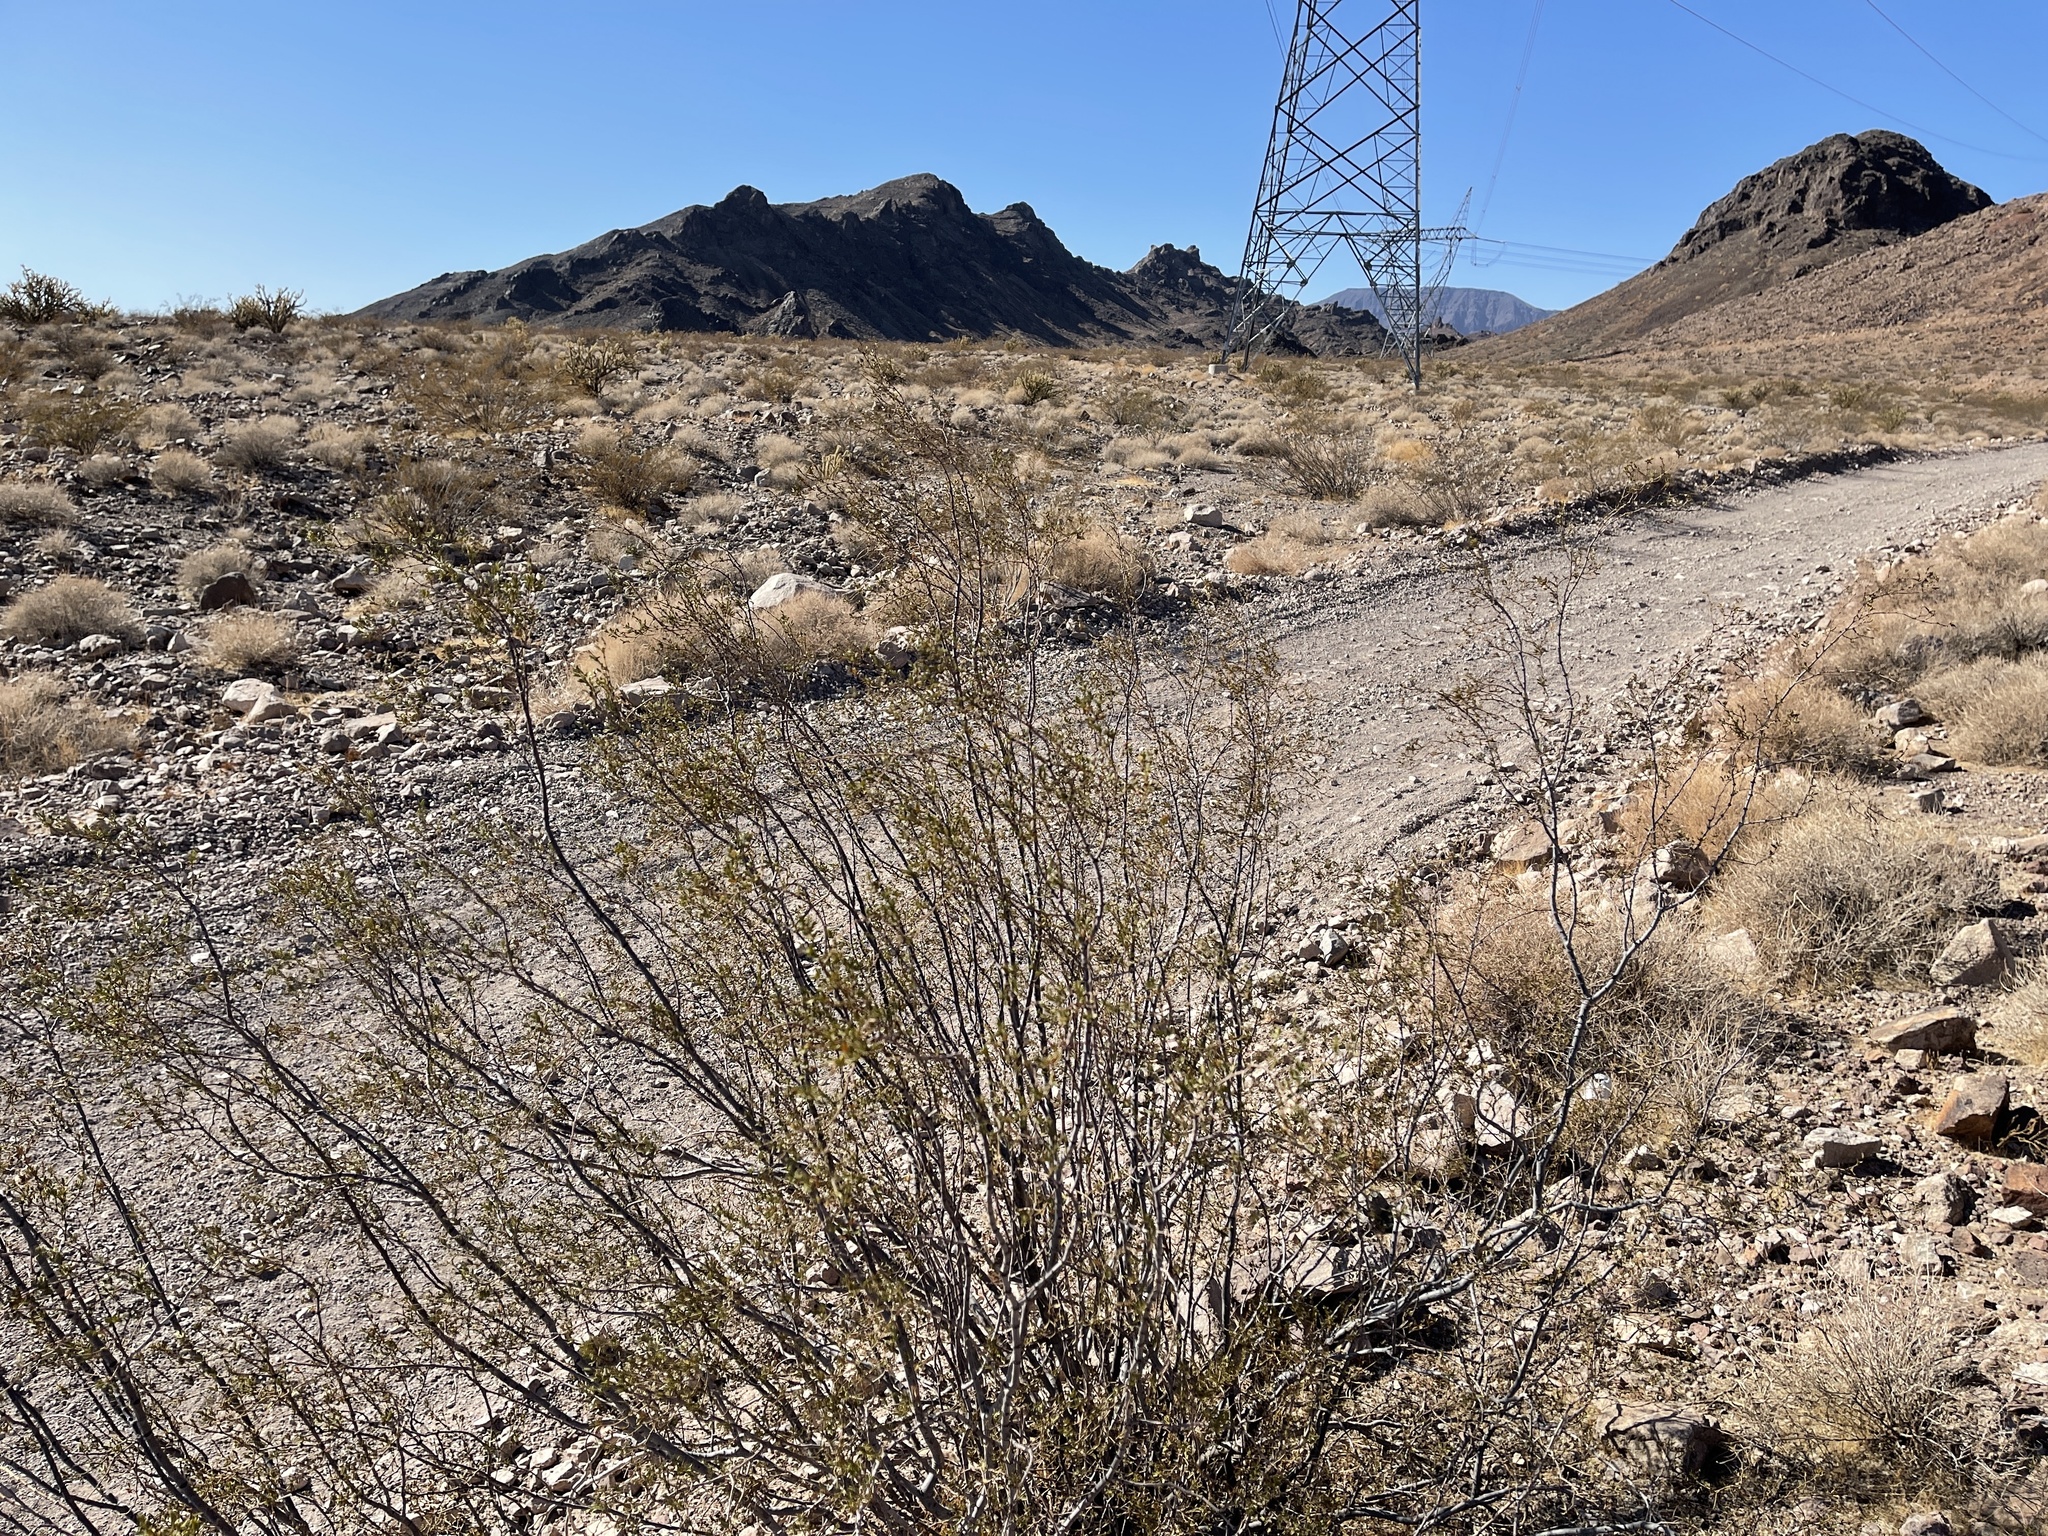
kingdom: Plantae
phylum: Tracheophyta
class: Magnoliopsida
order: Zygophyllales
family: Zygophyllaceae
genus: Larrea
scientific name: Larrea tridentata
